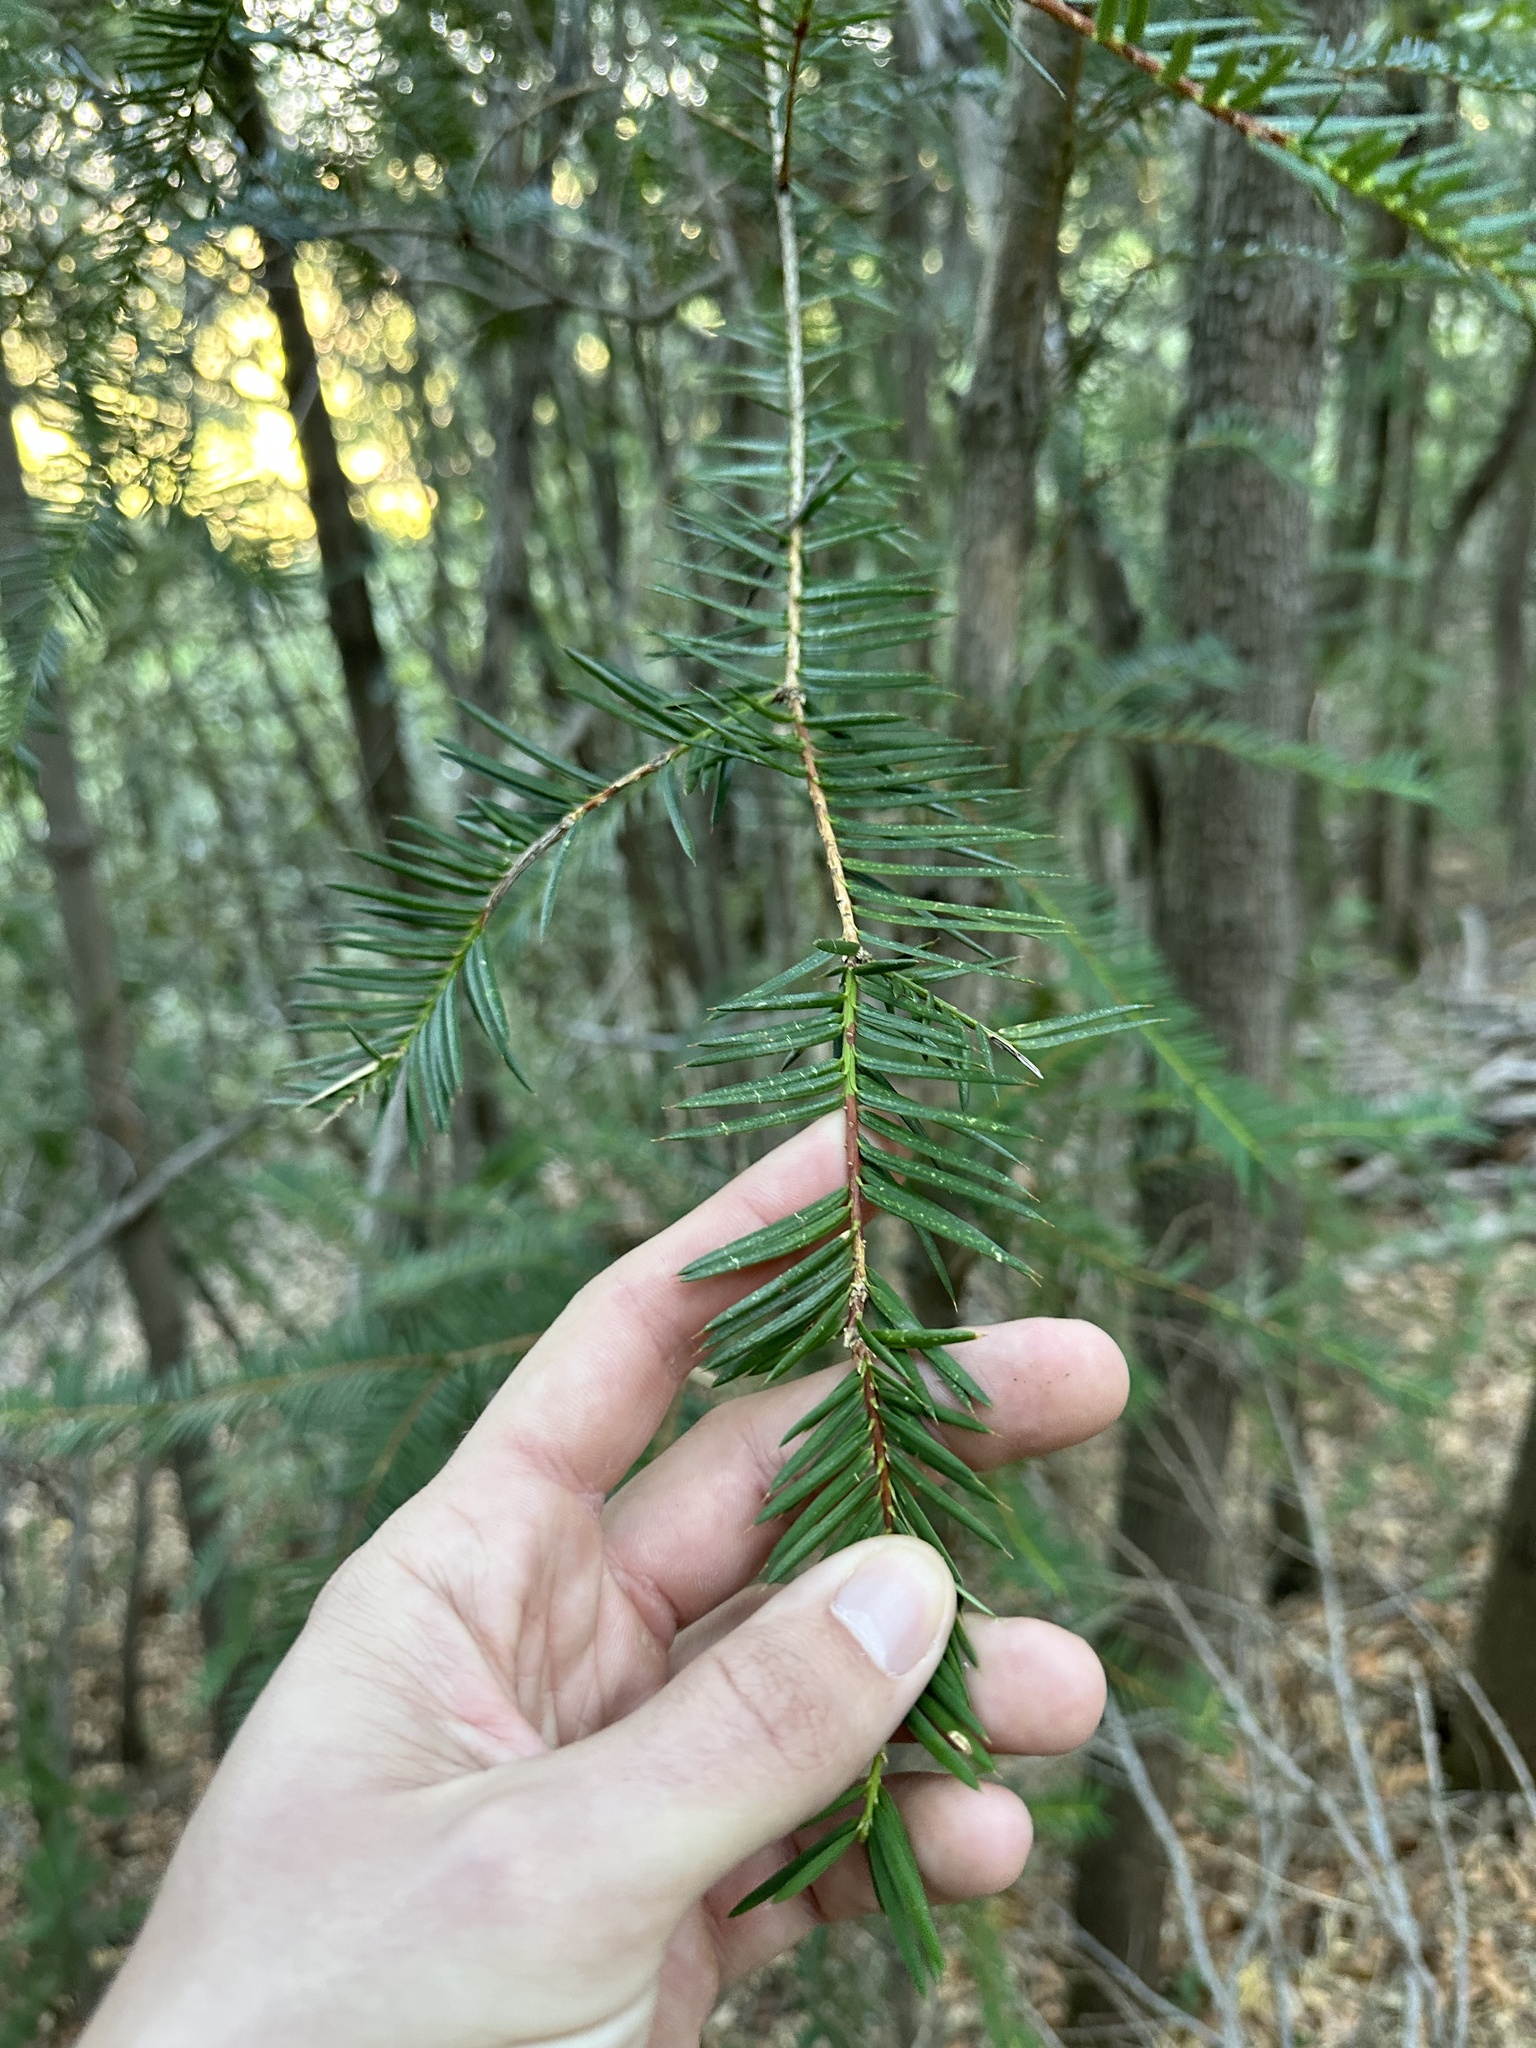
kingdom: Plantae
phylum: Tracheophyta
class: Pinopsida
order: Pinales
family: Taxaceae
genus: Torreya
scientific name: Torreya californica
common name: California torreya
